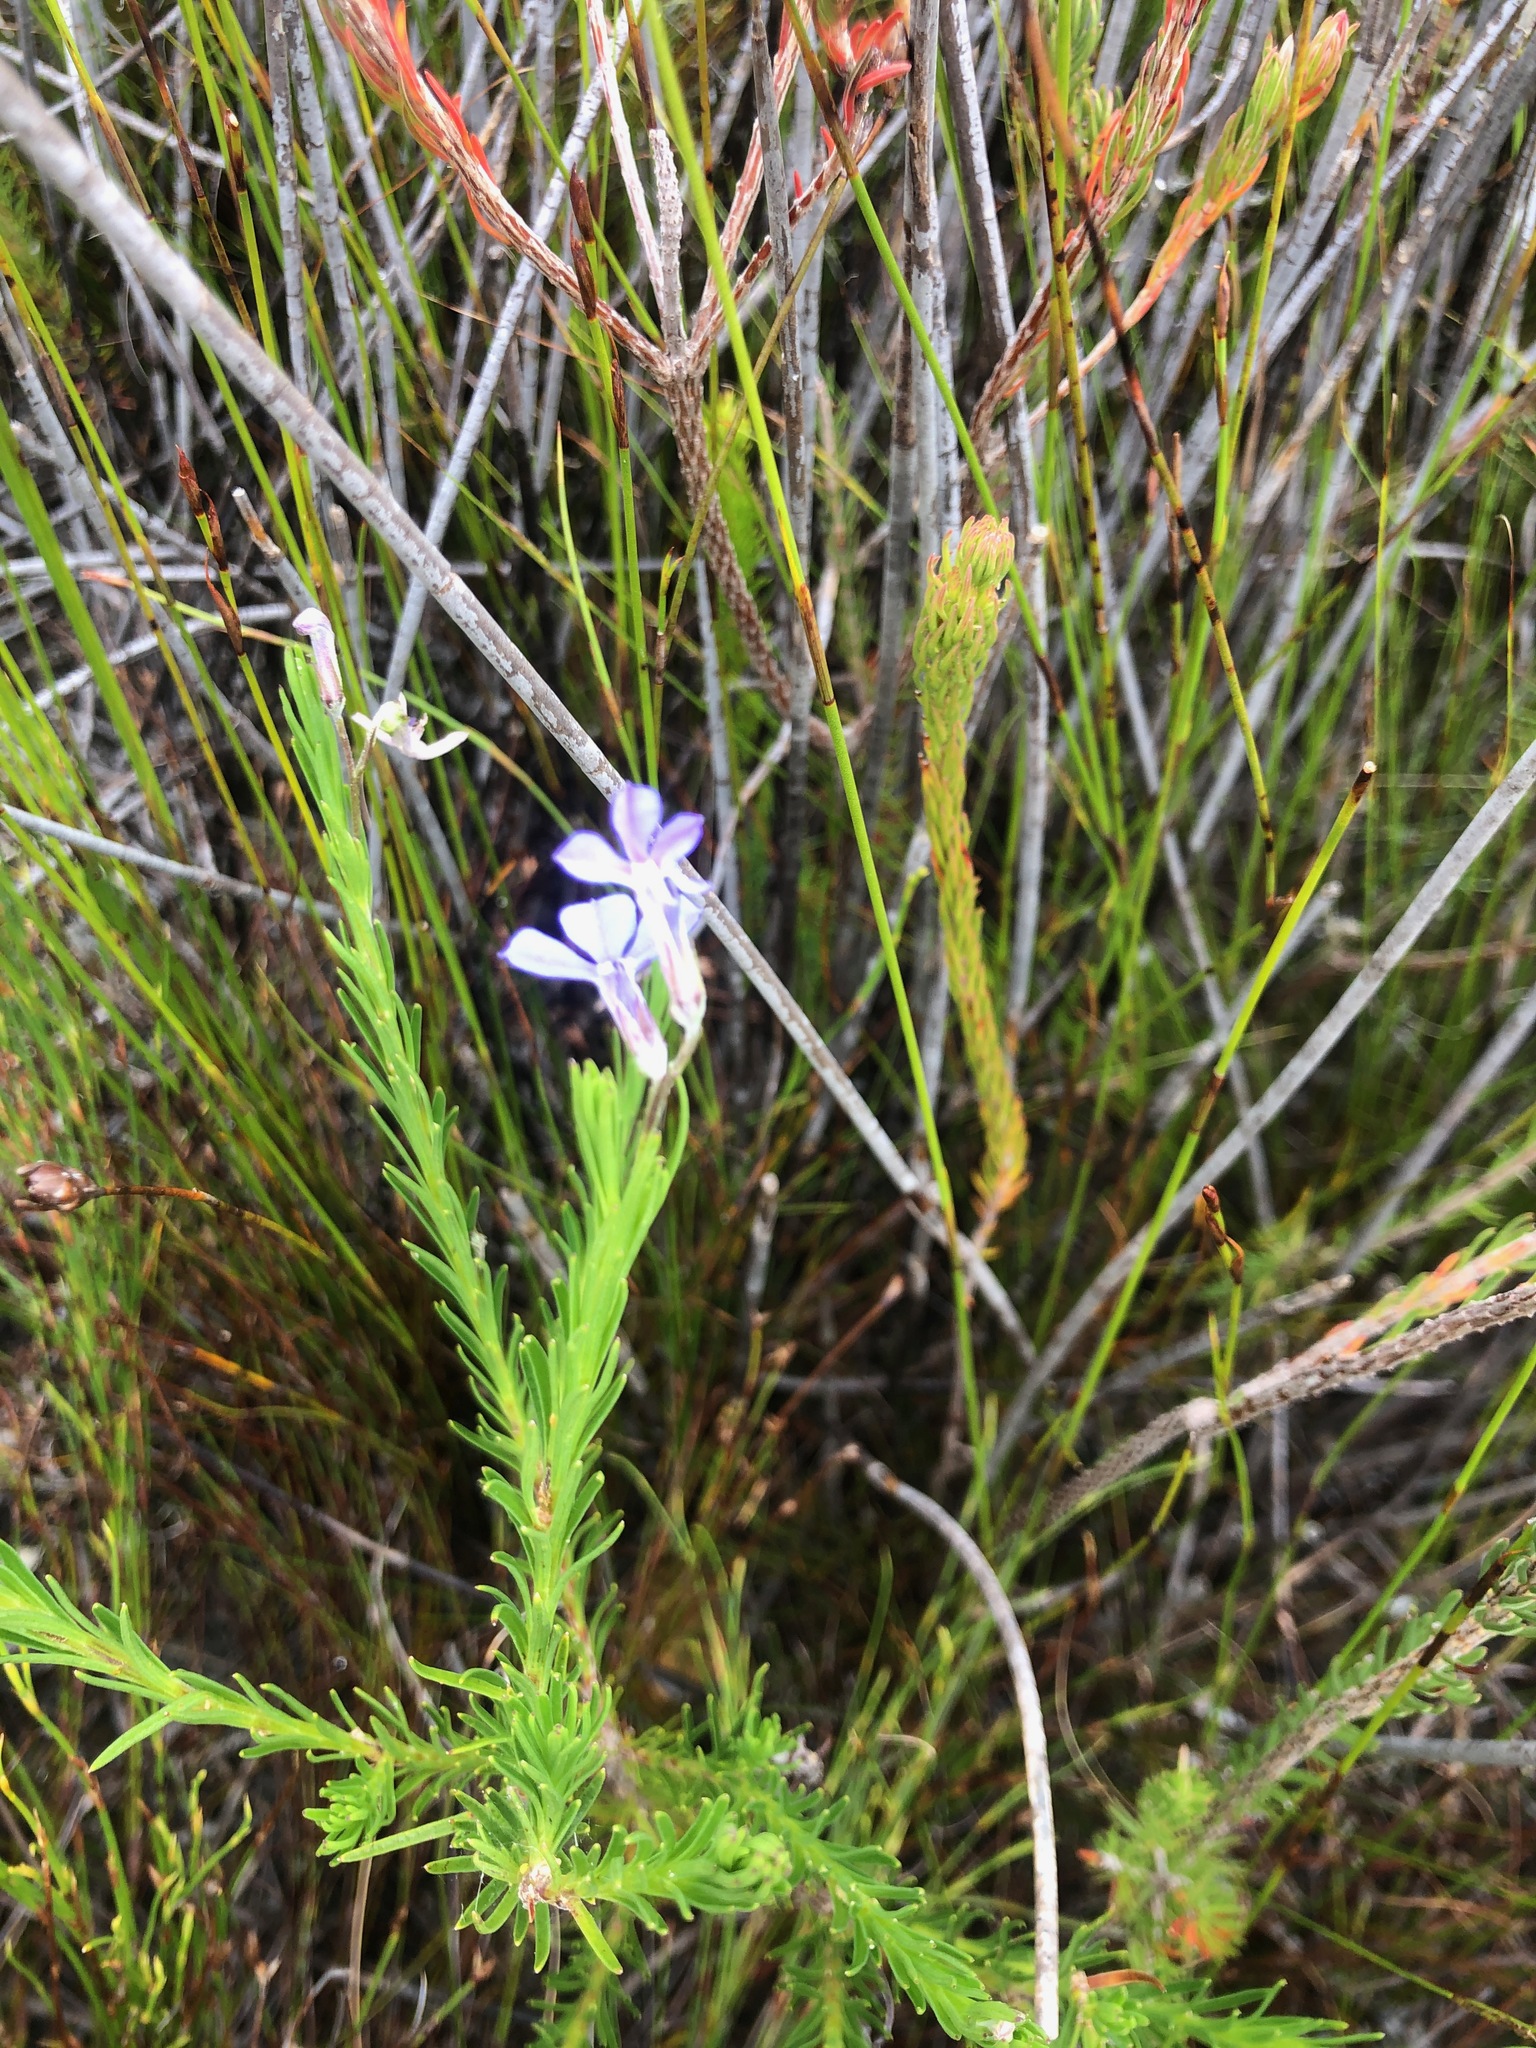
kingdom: Plantae
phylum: Tracheophyta
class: Magnoliopsida
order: Asterales
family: Campanulaceae
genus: Lobelia
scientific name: Lobelia pinifolia
